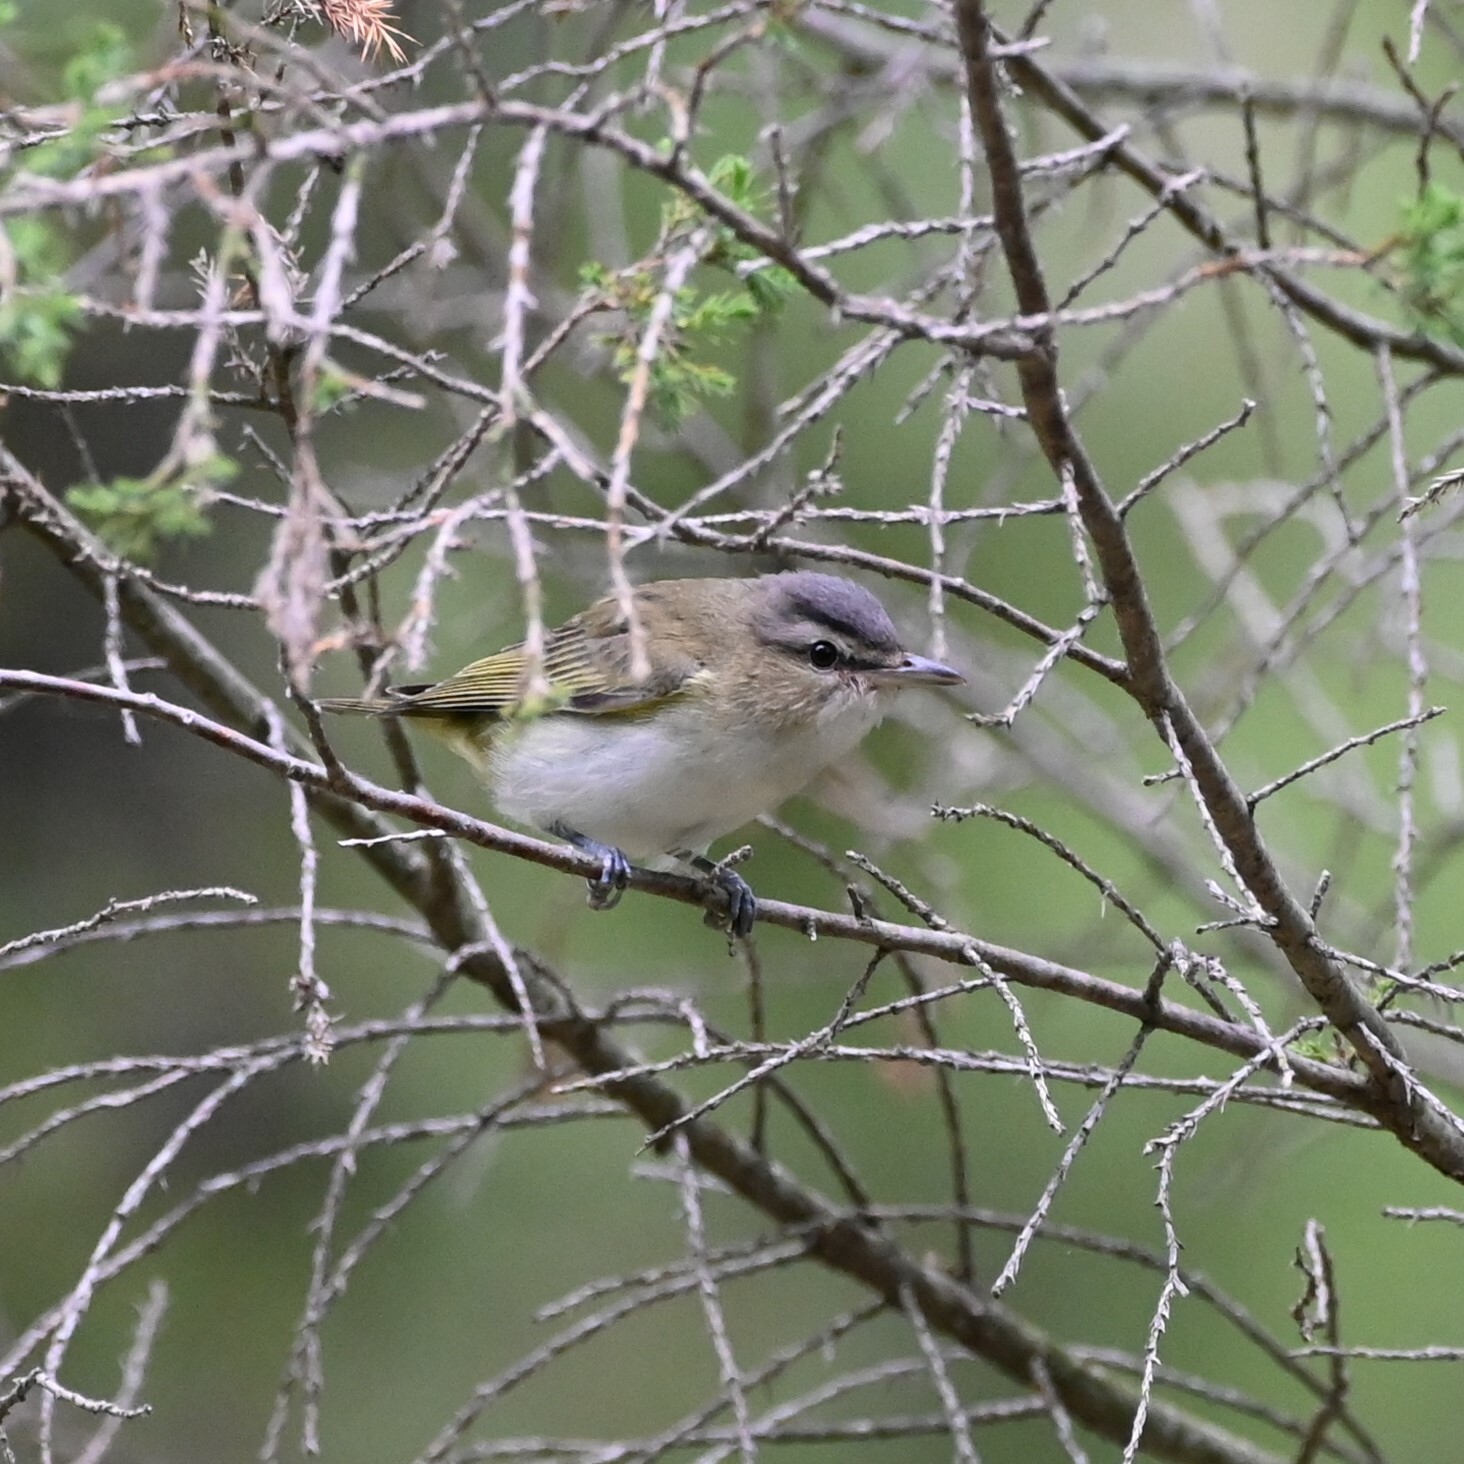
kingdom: Animalia
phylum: Chordata
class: Aves
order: Passeriformes
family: Vireonidae
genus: Vireo
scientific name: Vireo olivaceus
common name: Red-eyed vireo
